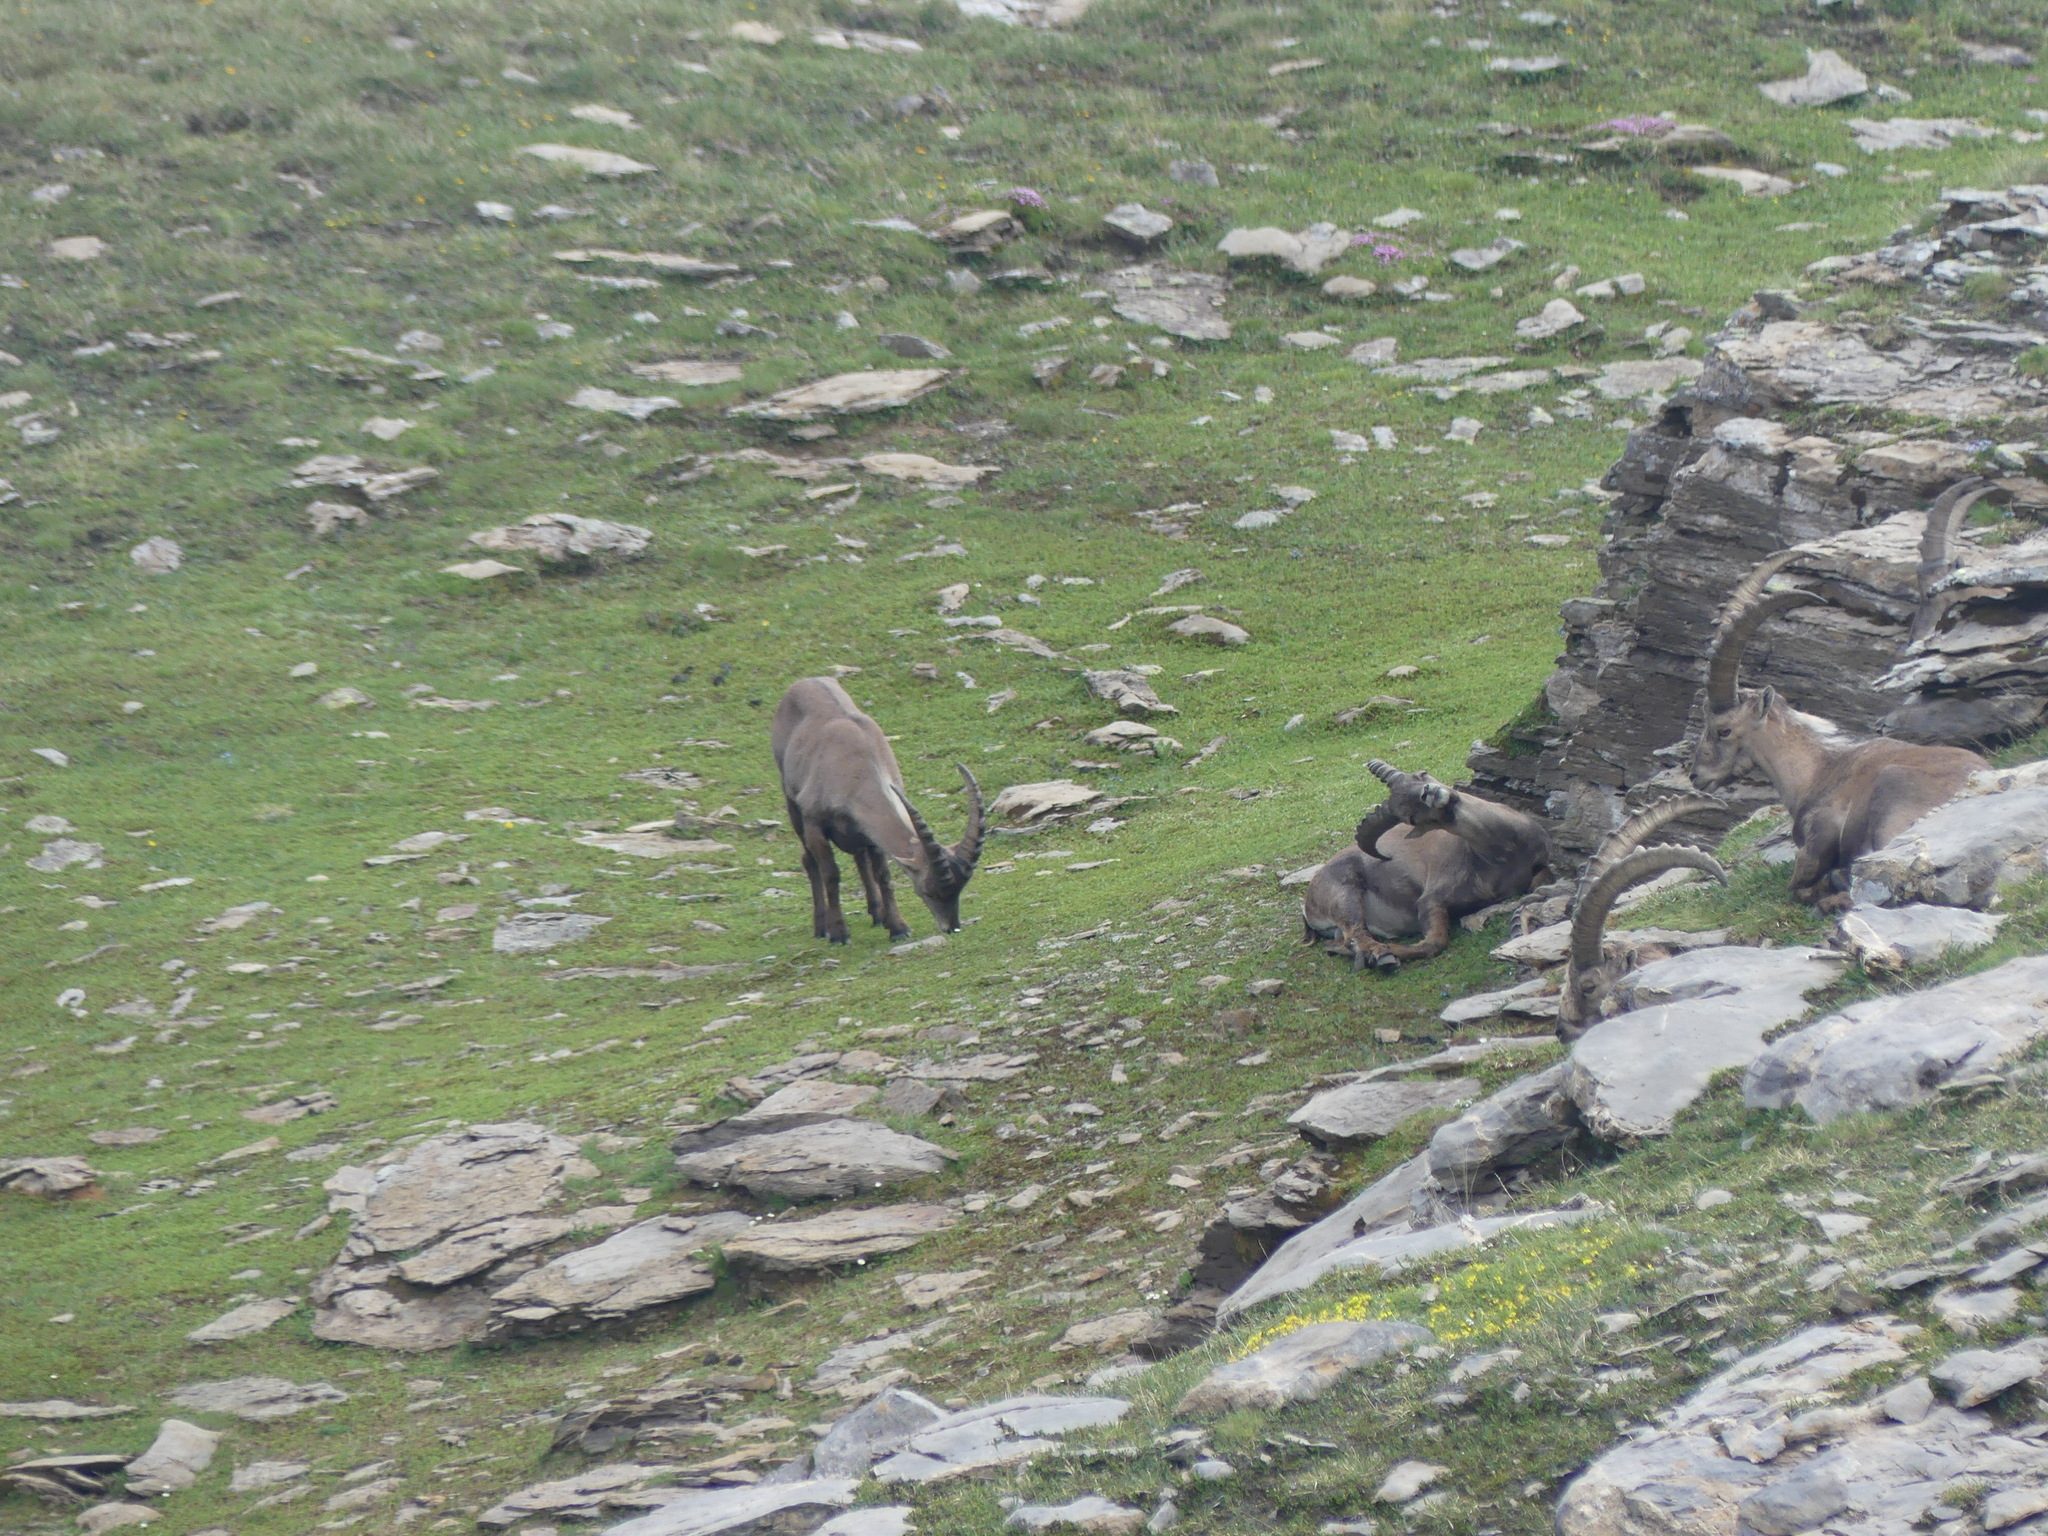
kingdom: Animalia
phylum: Chordata
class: Mammalia
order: Artiodactyla
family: Bovidae
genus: Capra
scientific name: Capra ibex
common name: Alpine ibex
